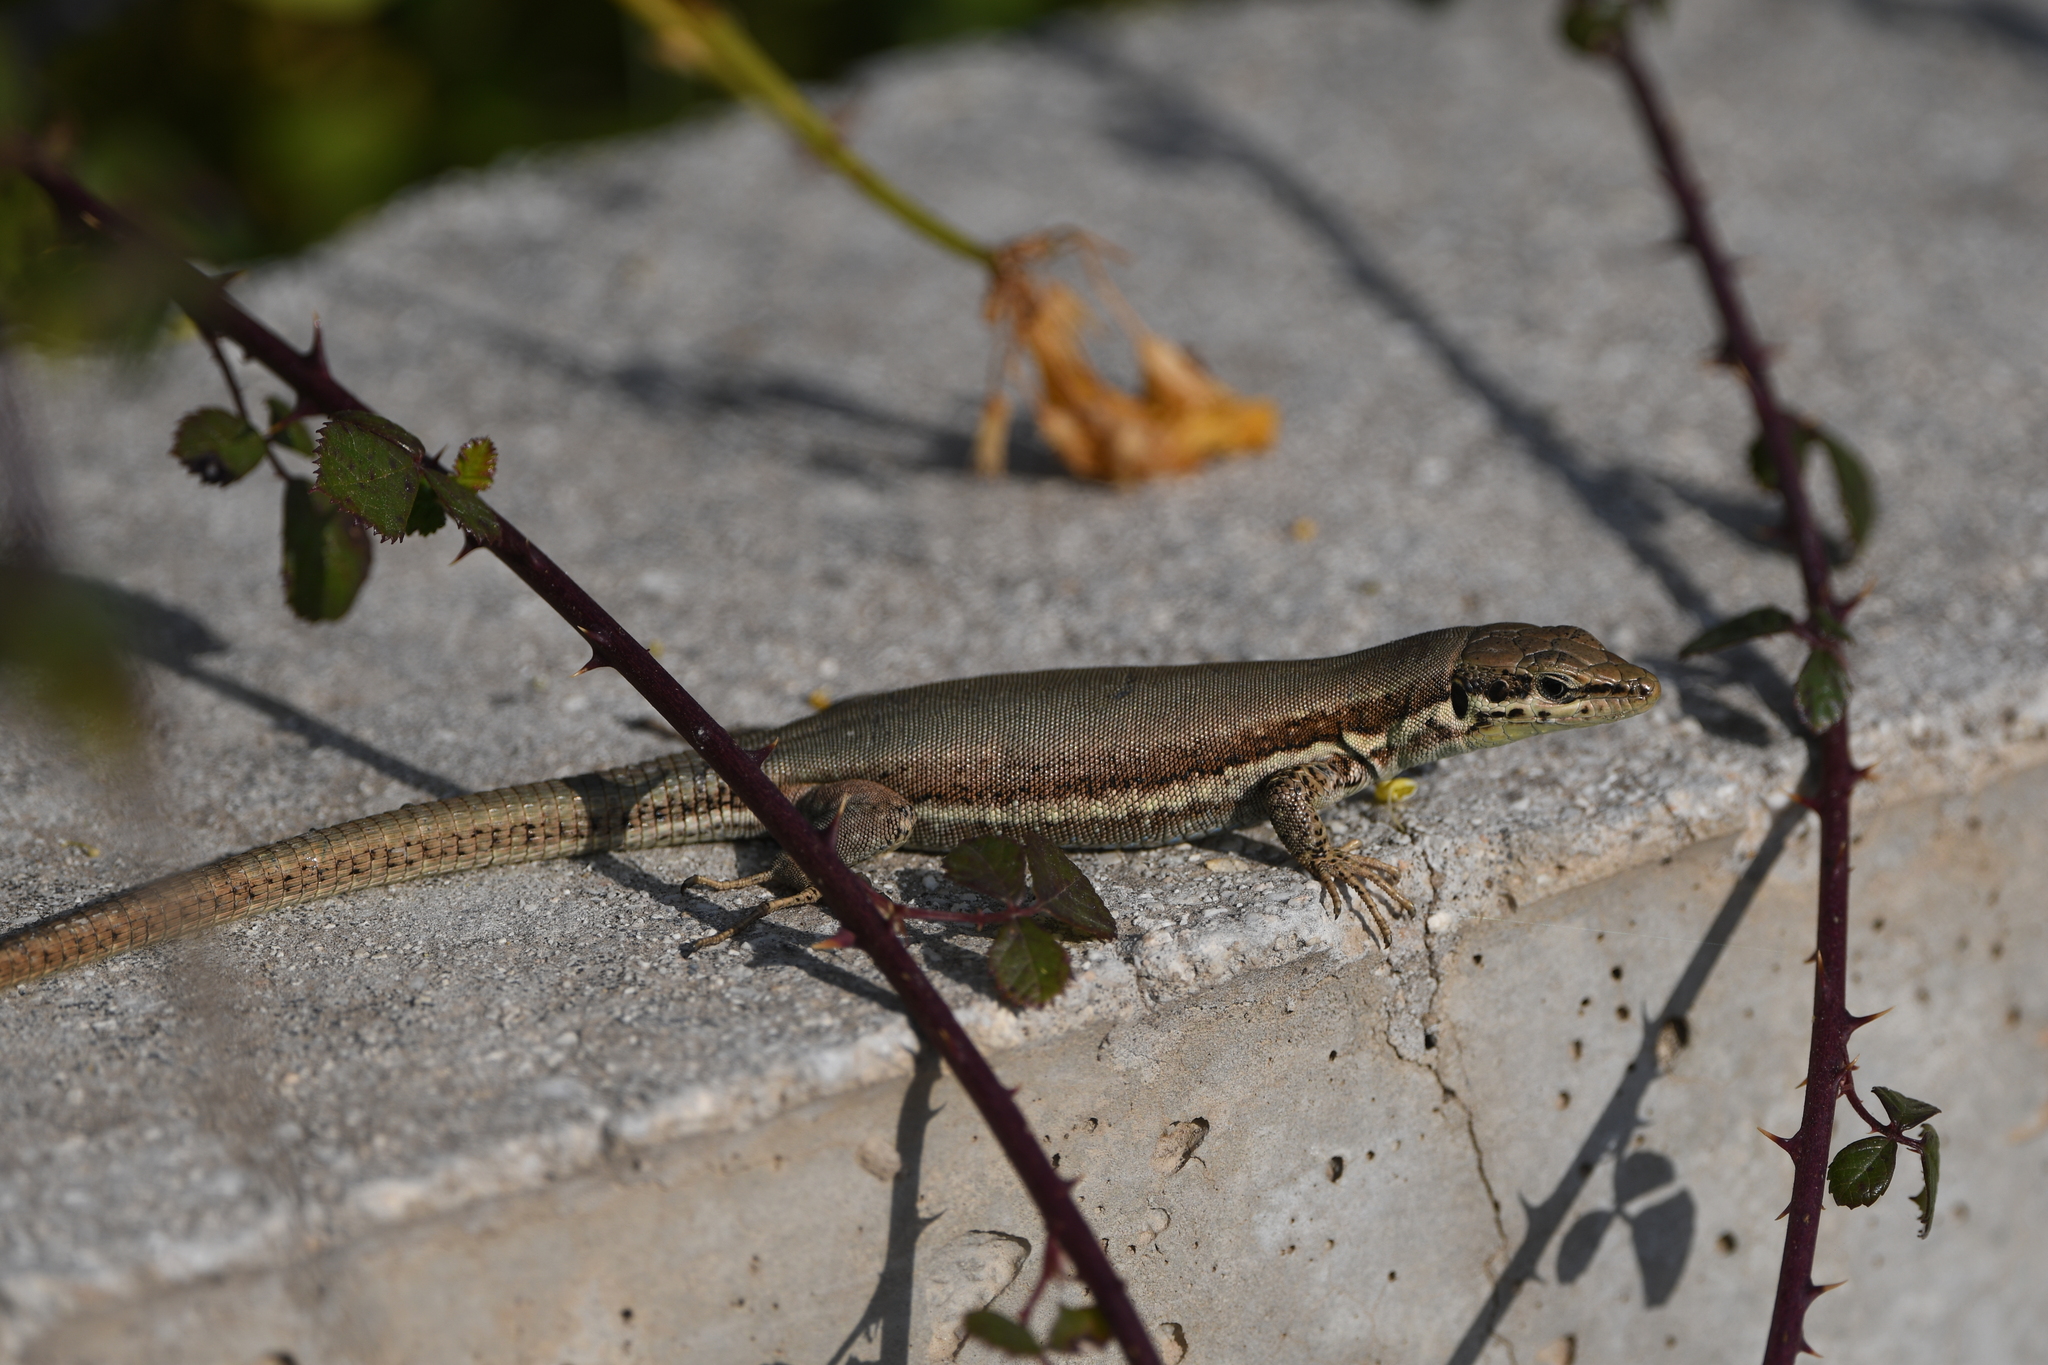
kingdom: Animalia
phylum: Chordata
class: Squamata
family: Lacertidae
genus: Phoenicolacerta
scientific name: Phoenicolacerta troodica
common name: Troodos wall lizard
